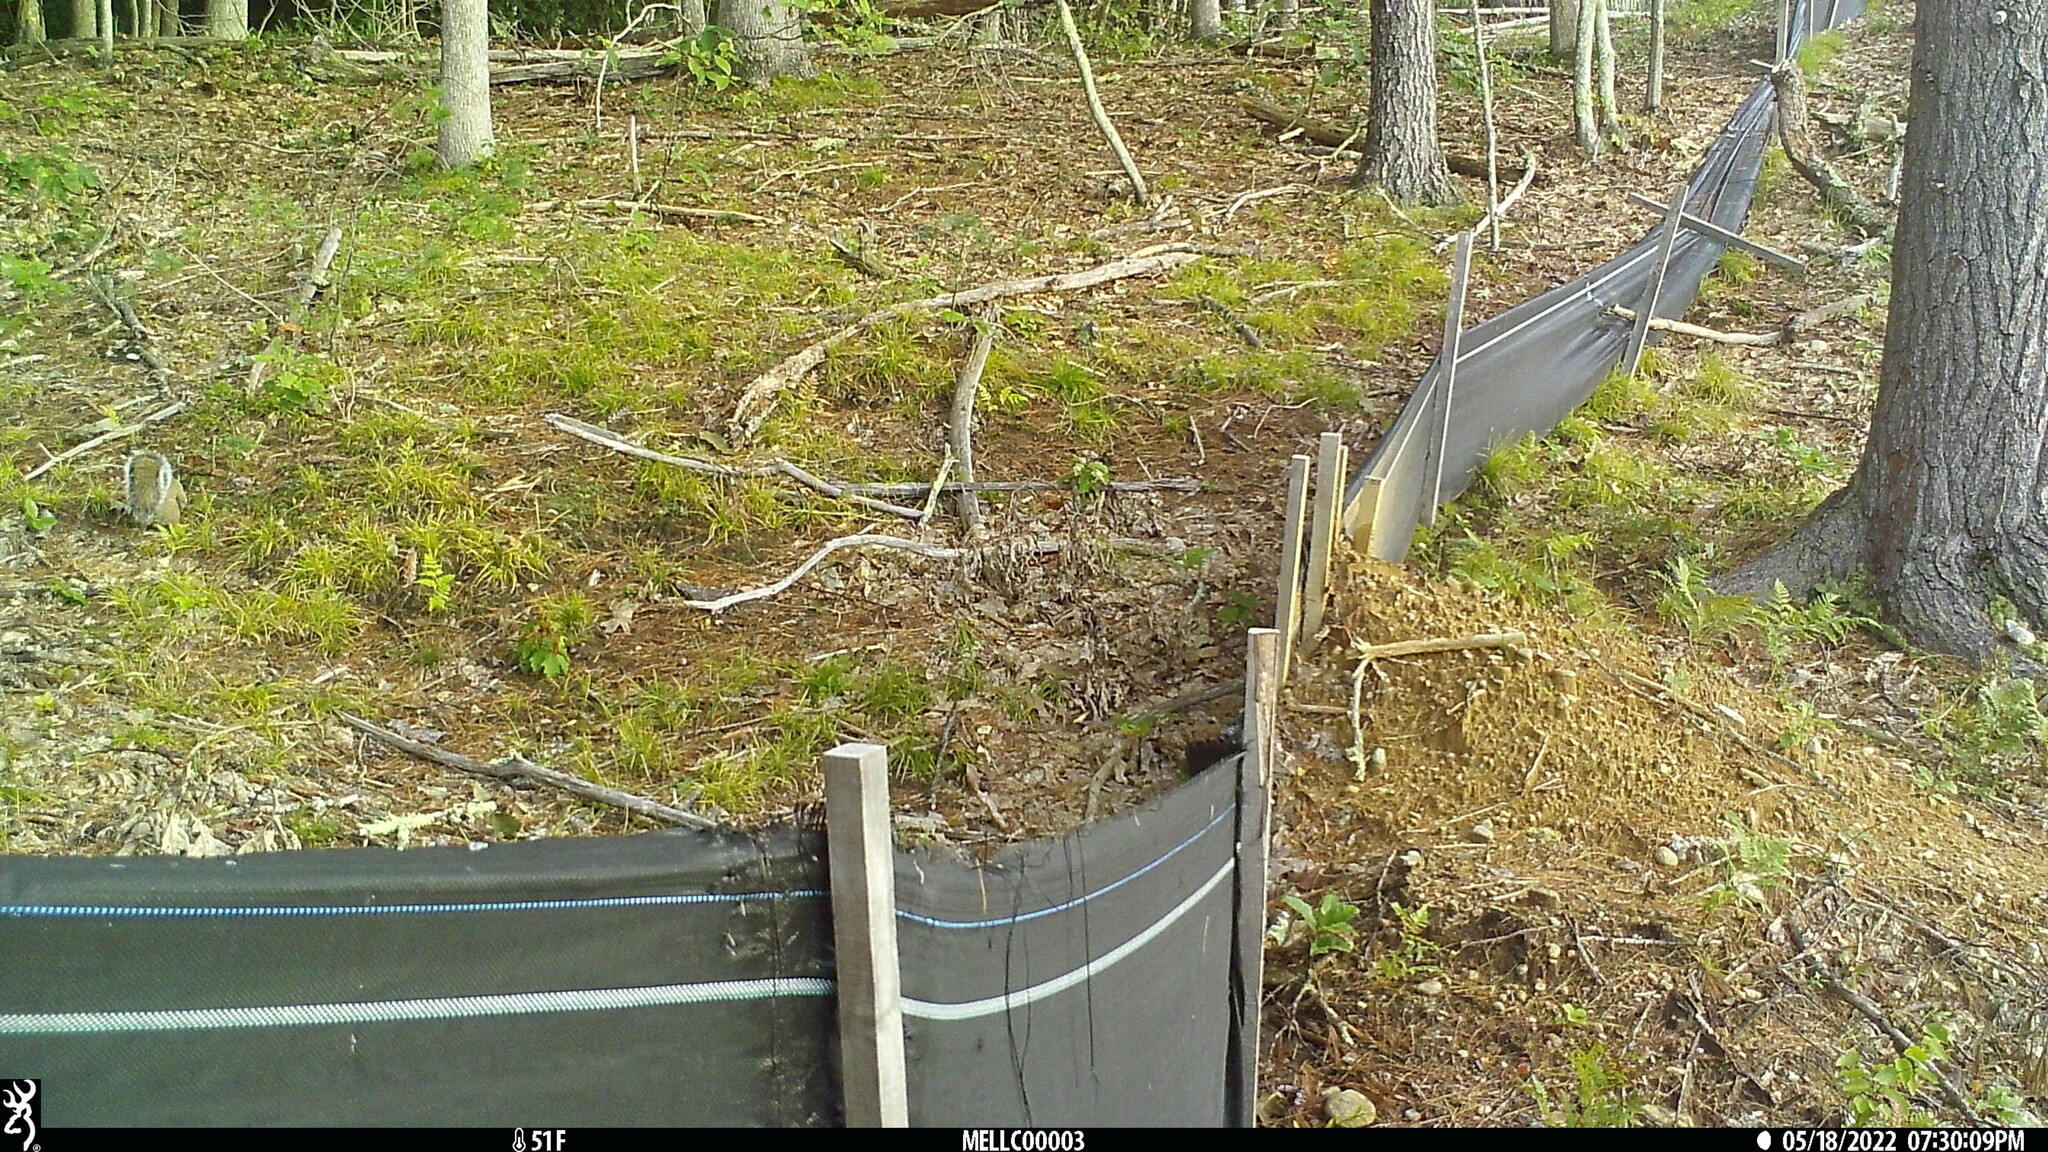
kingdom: Animalia
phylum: Chordata
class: Mammalia
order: Rodentia
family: Sciuridae
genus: Sciurus
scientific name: Sciurus carolinensis
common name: Eastern gray squirrel
